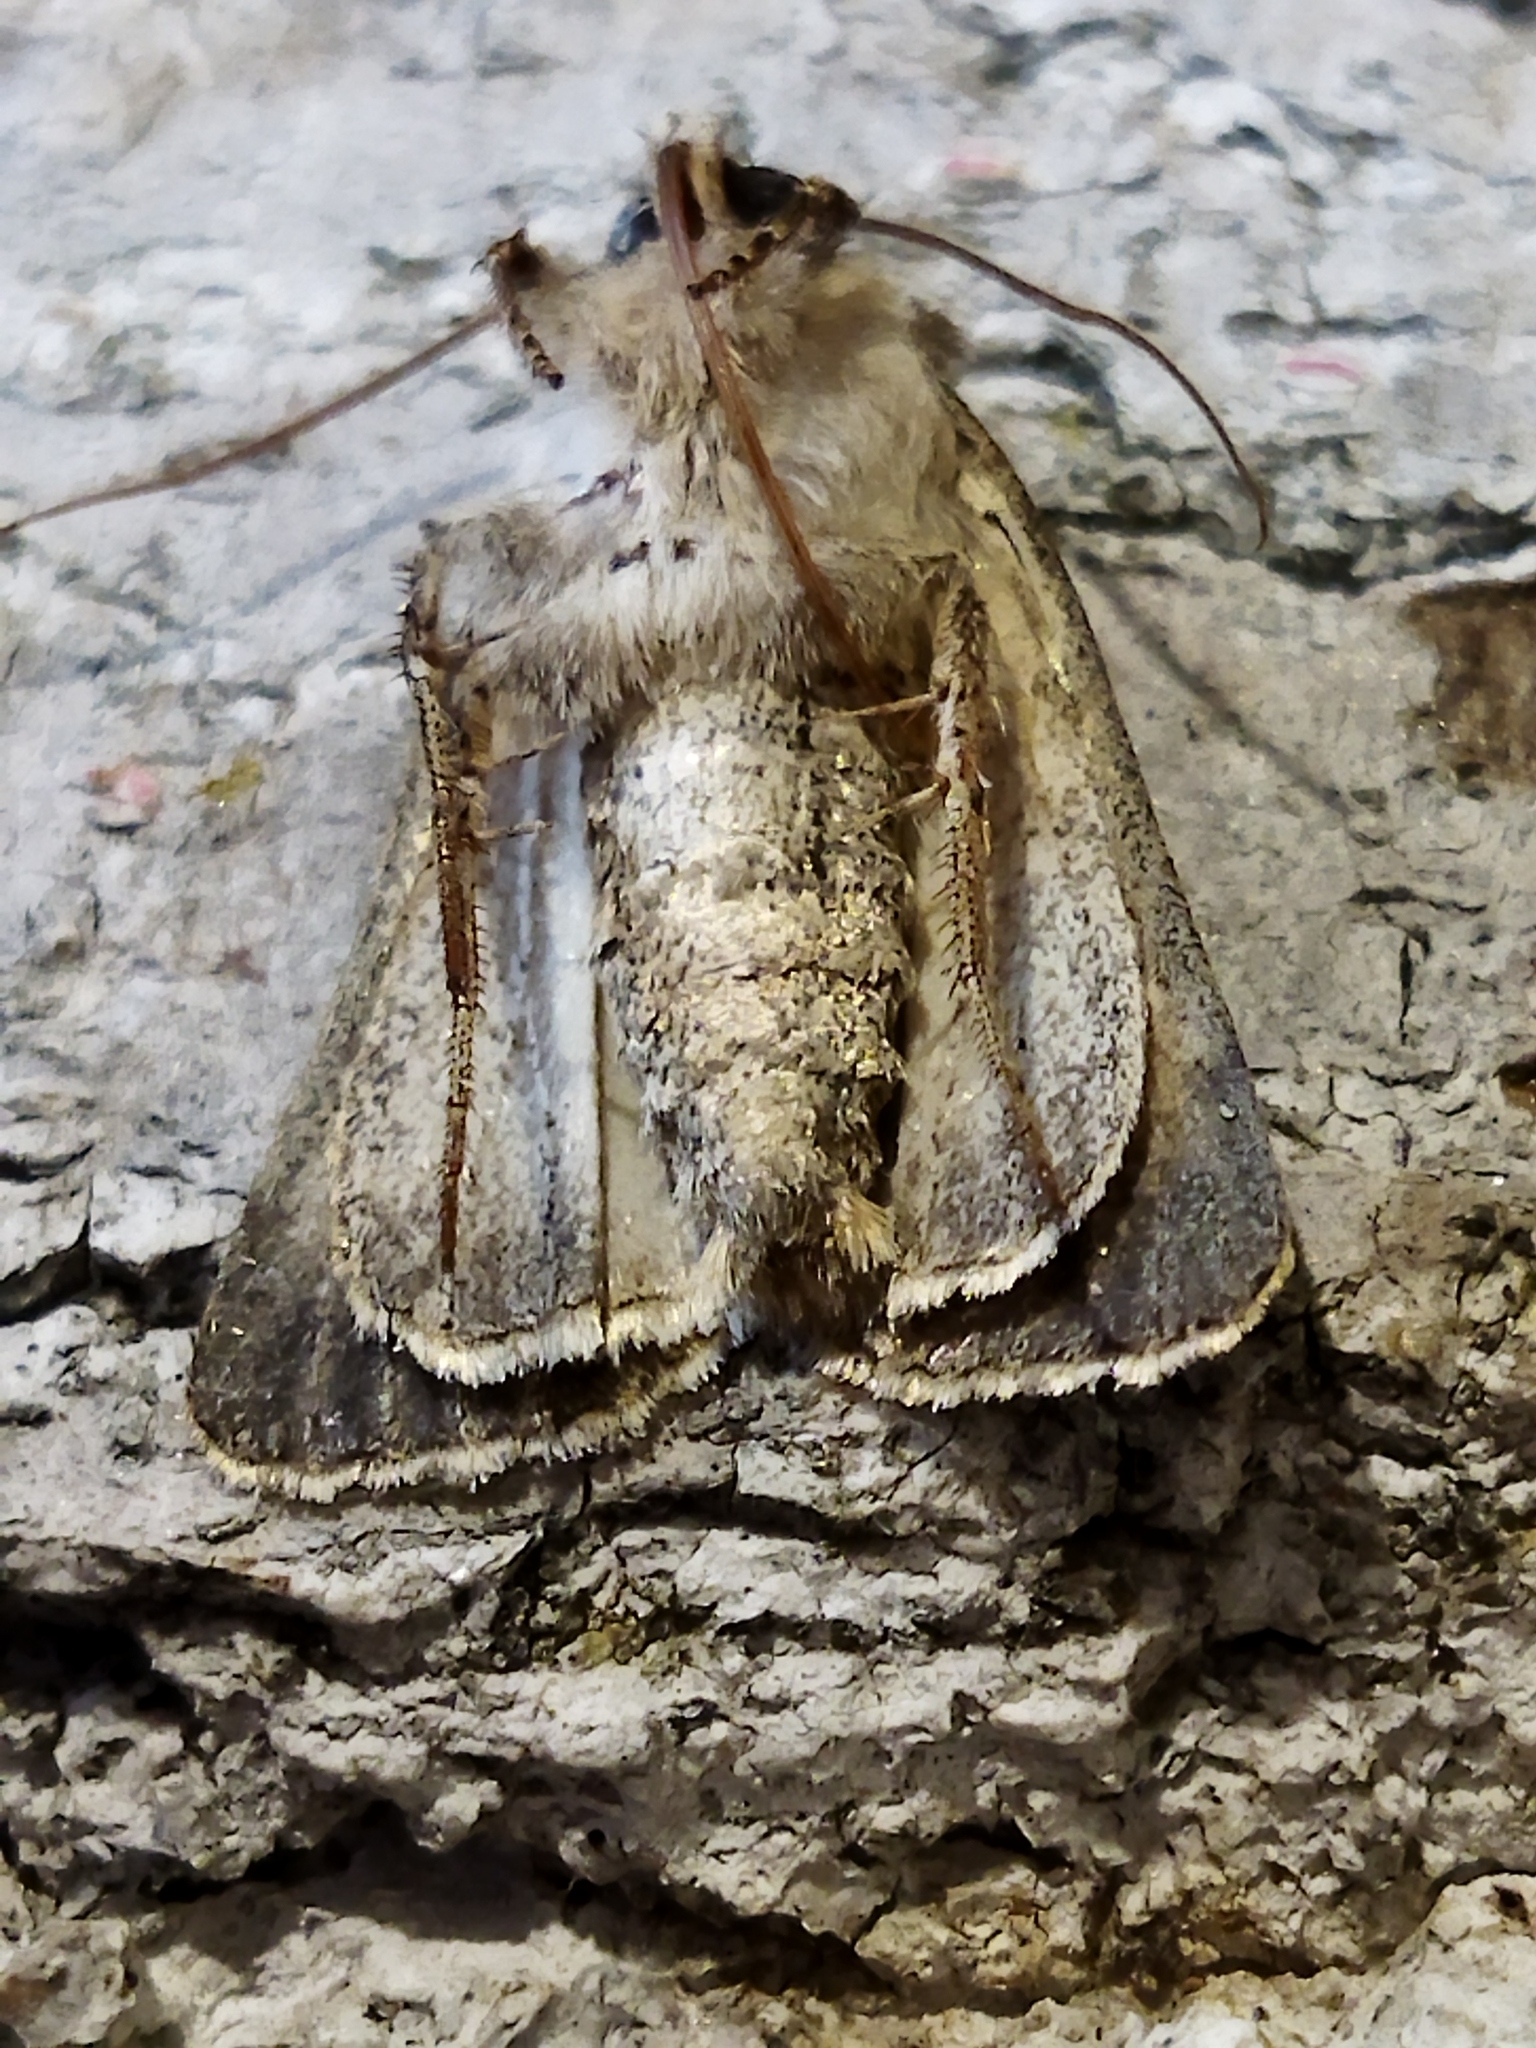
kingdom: Animalia
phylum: Arthropoda
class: Insecta
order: Lepidoptera
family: Noctuidae
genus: Yigoga
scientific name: Yigoga forcipula
